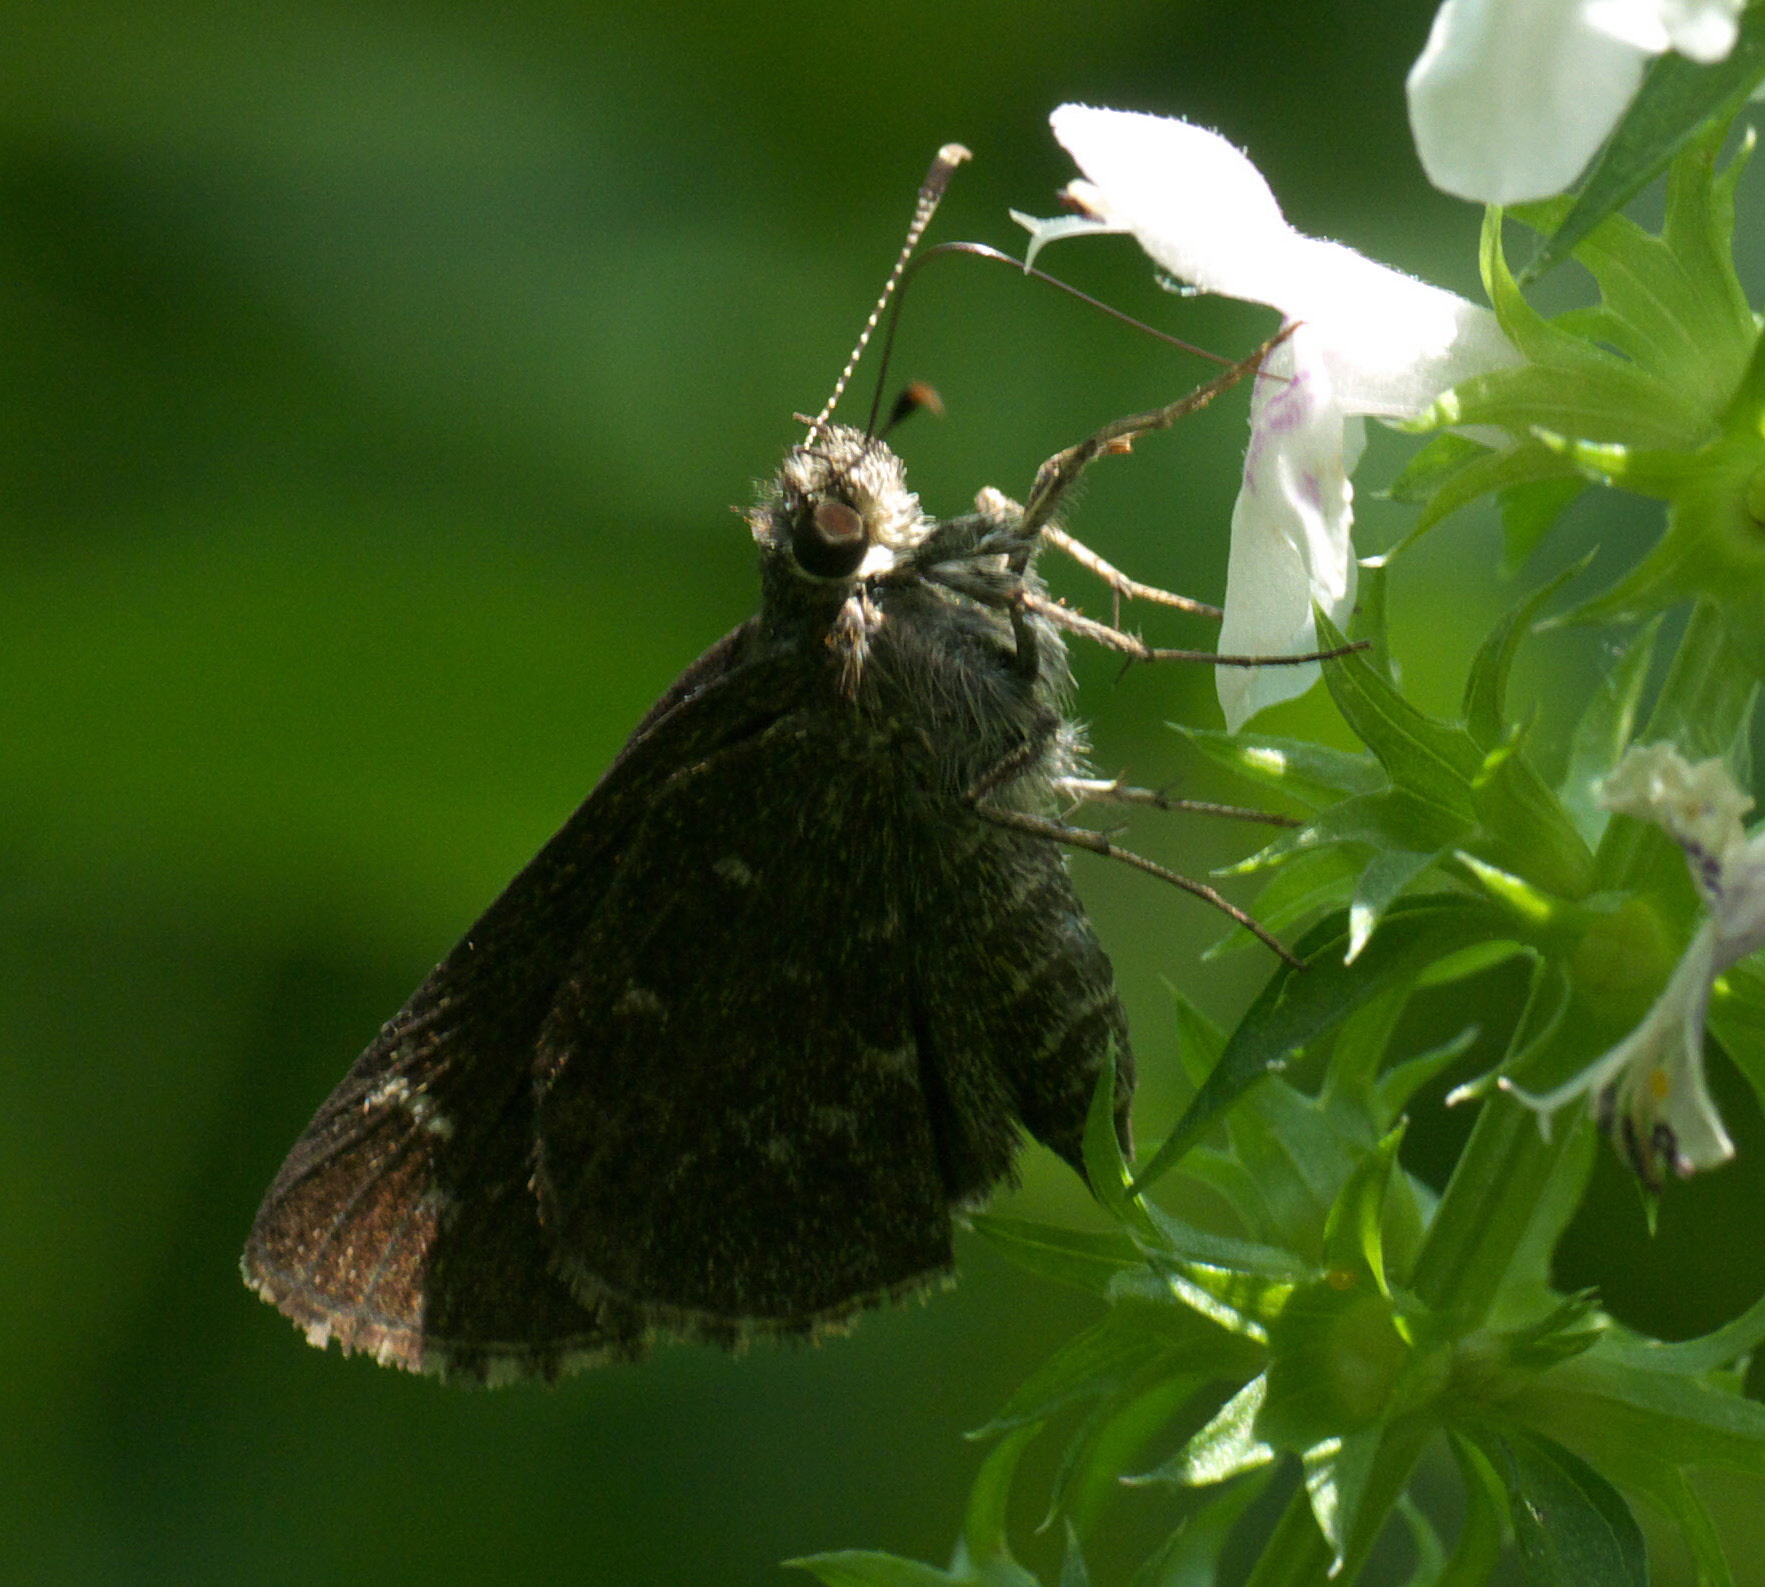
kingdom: Animalia
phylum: Arthropoda
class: Insecta
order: Lepidoptera
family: Hesperiidae
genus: Mastor
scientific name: Mastor celia
